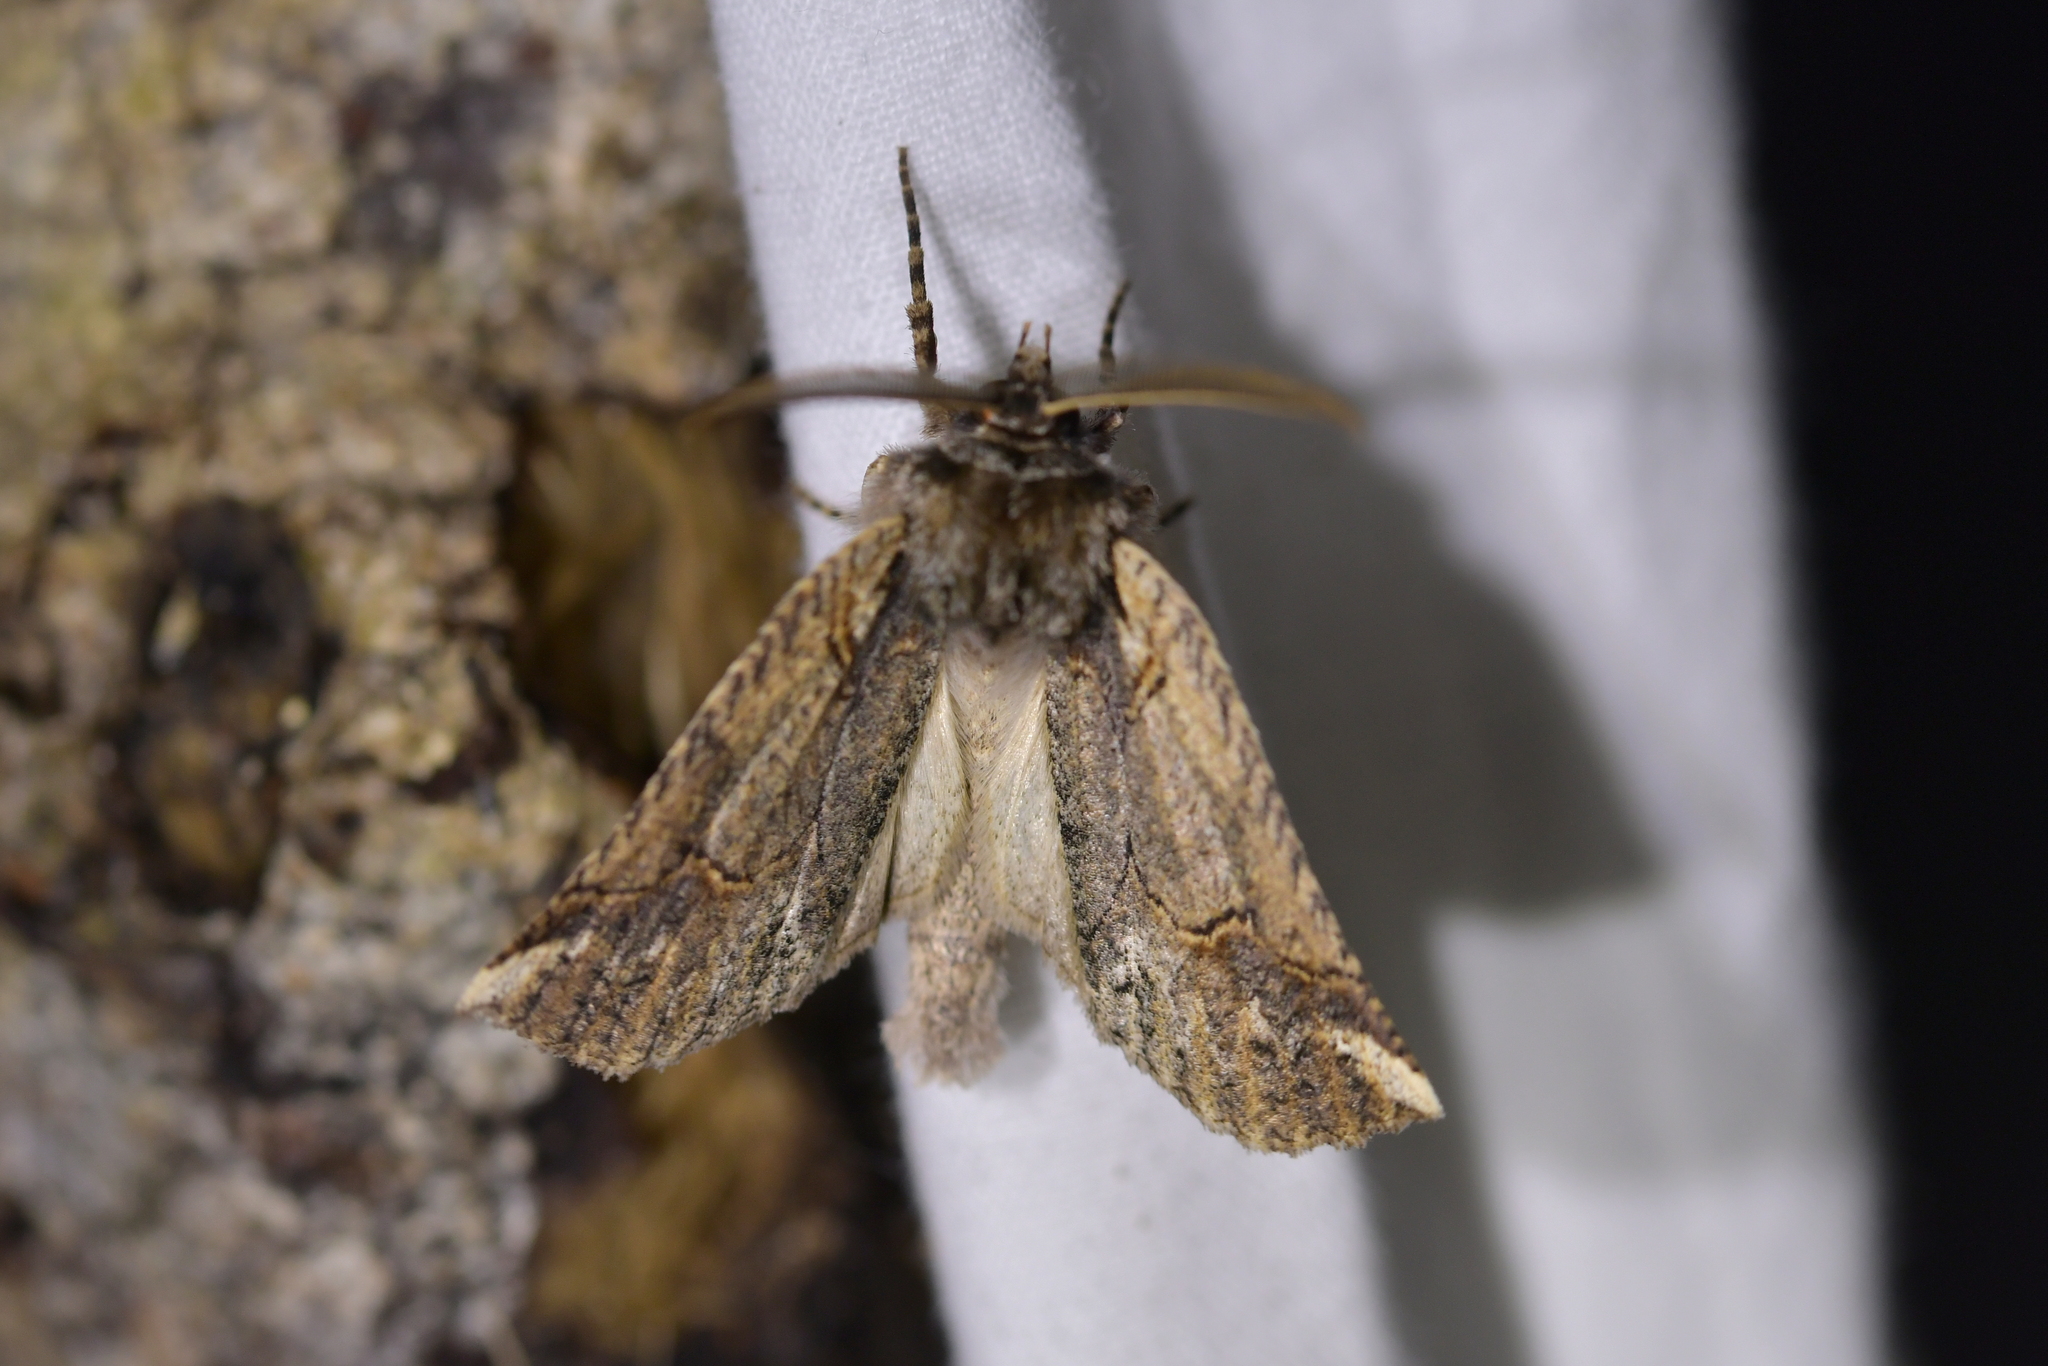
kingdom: Animalia
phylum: Arthropoda
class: Insecta
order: Lepidoptera
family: Geometridae
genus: Declana
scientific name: Declana
